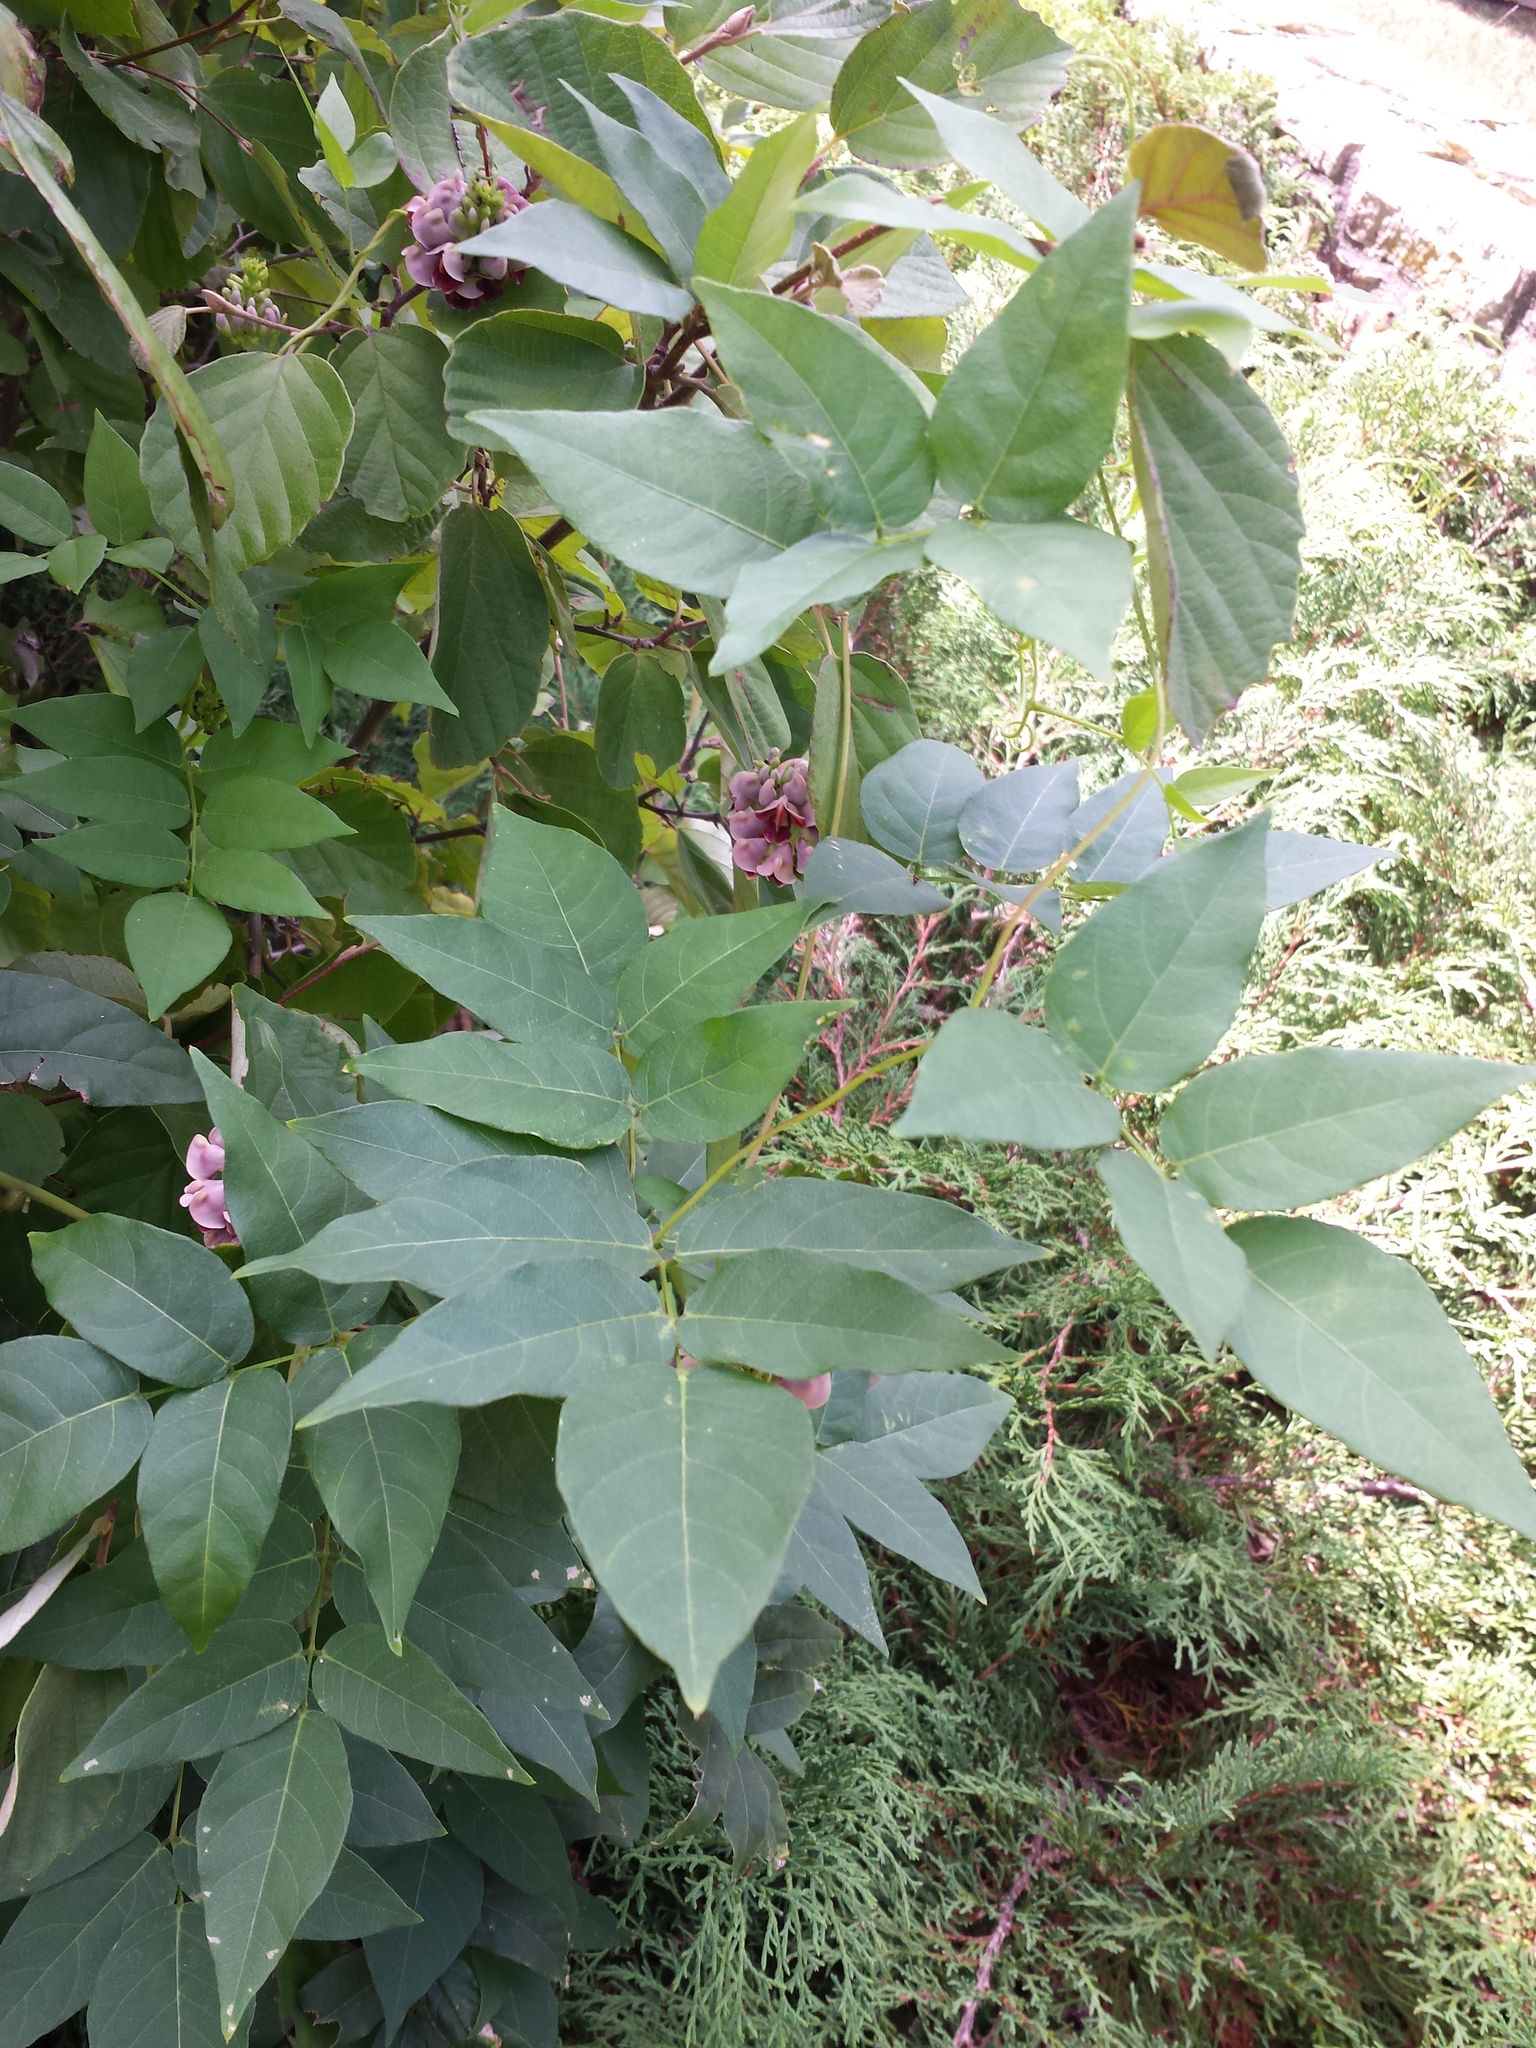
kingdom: Plantae
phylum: Tracheophyta
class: Magnoliopsida
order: Fabales
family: Fabaceae
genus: Apios
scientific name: Apios americana
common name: American potato-bean
